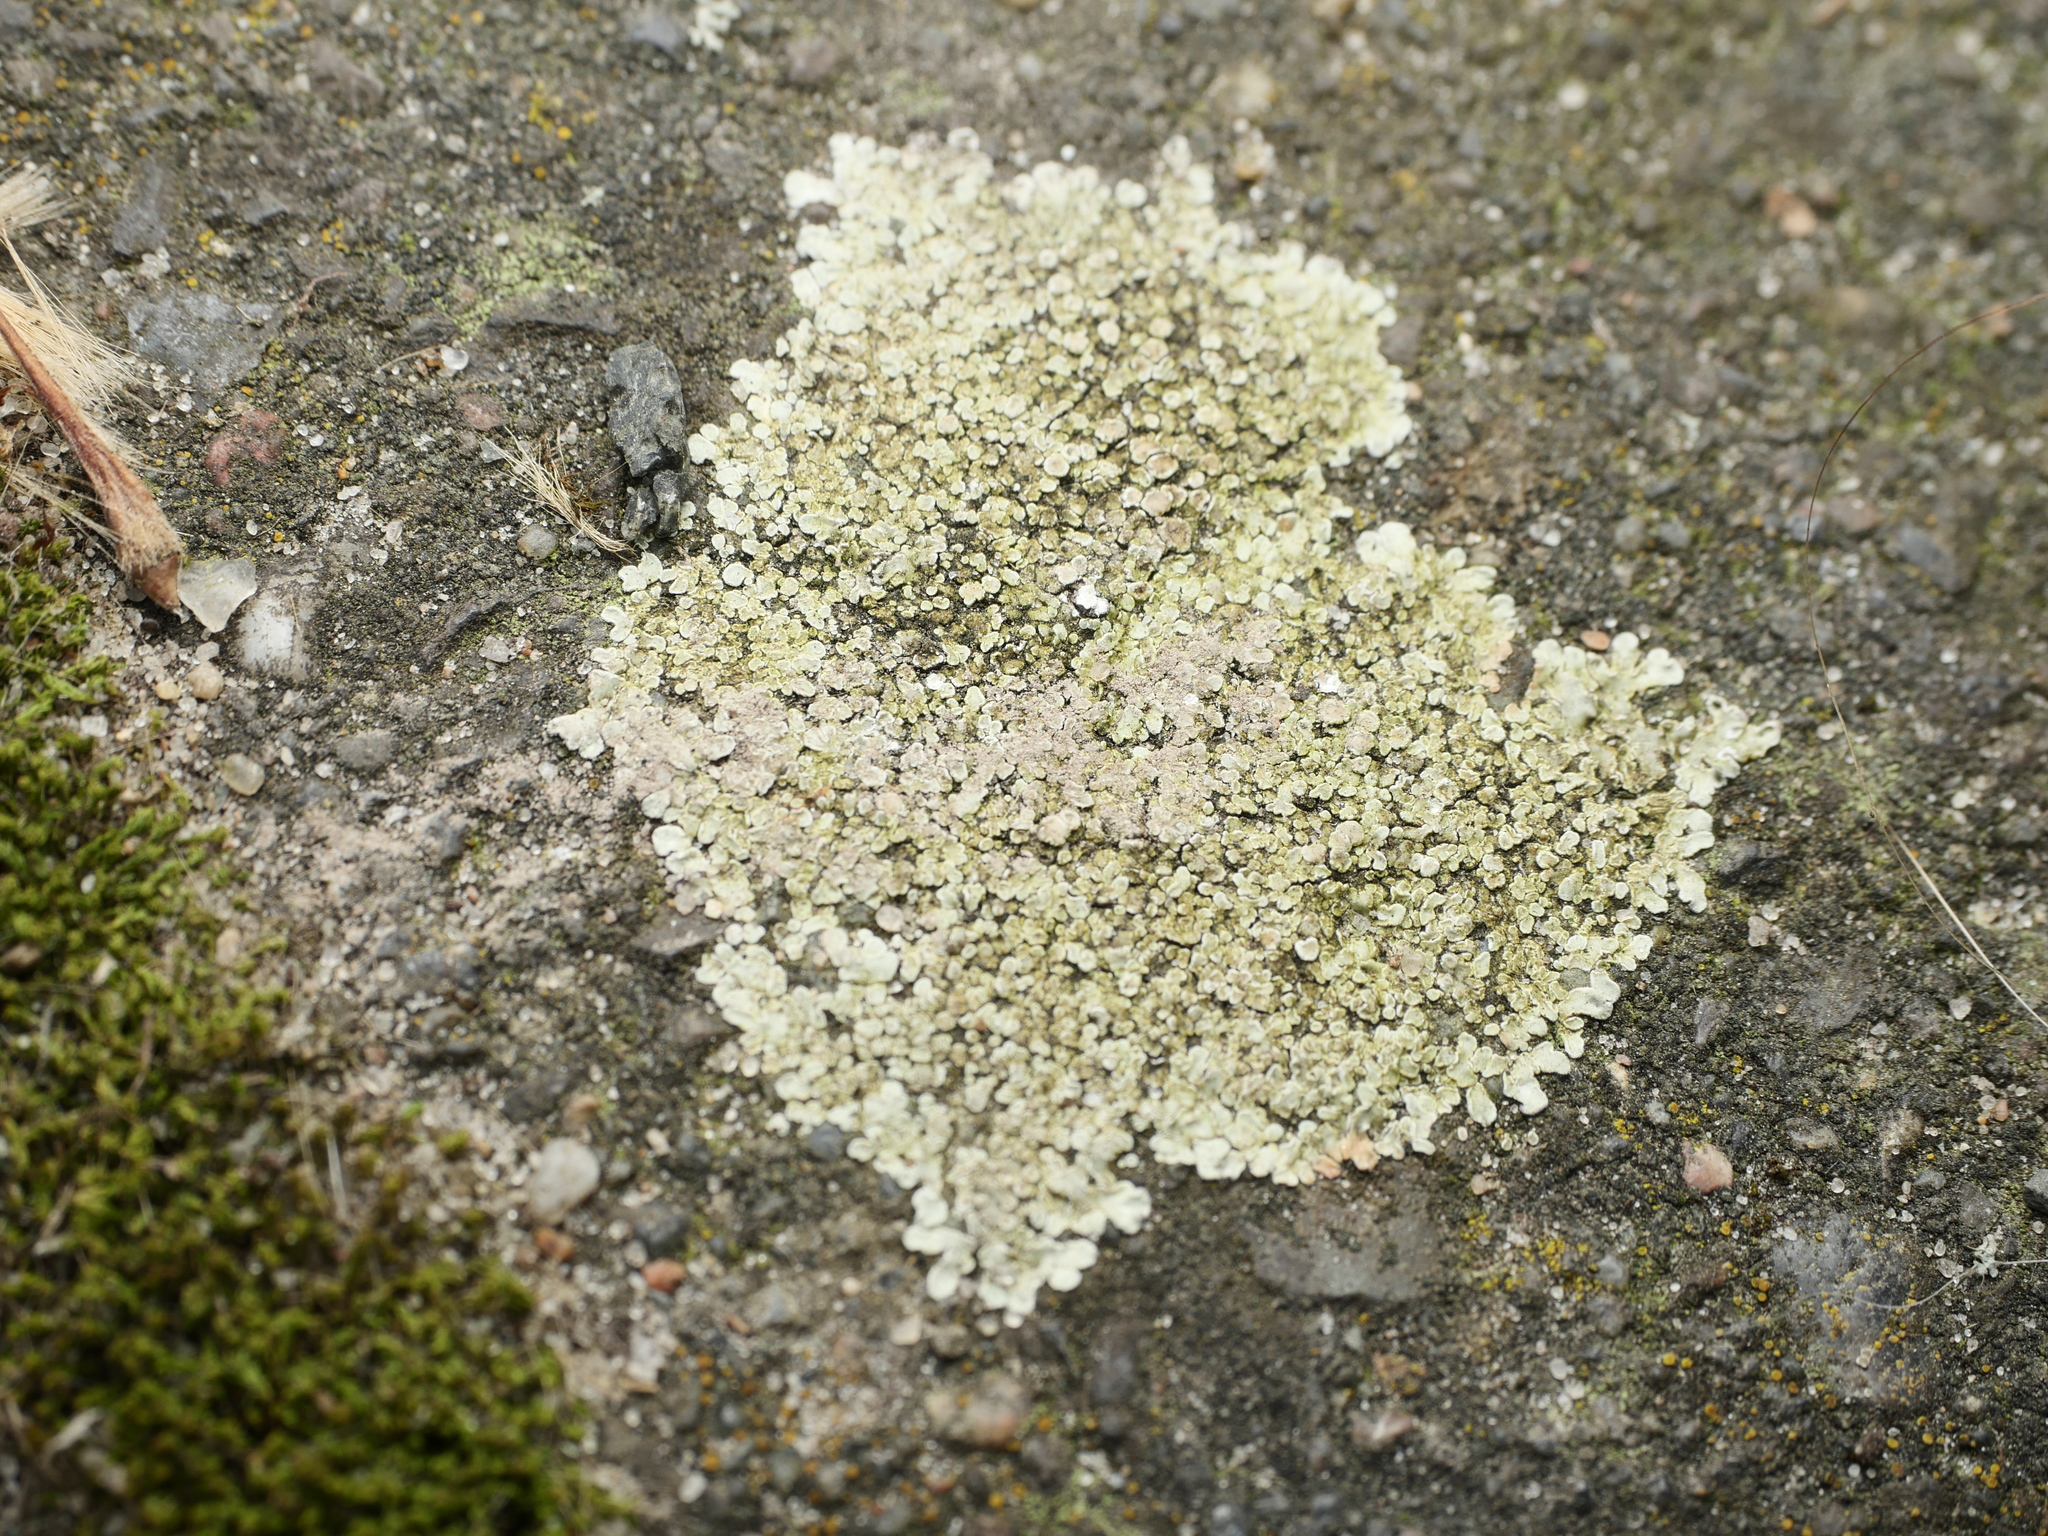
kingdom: Fungi
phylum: Ascomycota
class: Lecanoromycetes
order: Lecanorales
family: Lecanoraceae
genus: Protoparmeliopsis
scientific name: Protoparmeliopsis muralis
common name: Stonewall rim lichen
